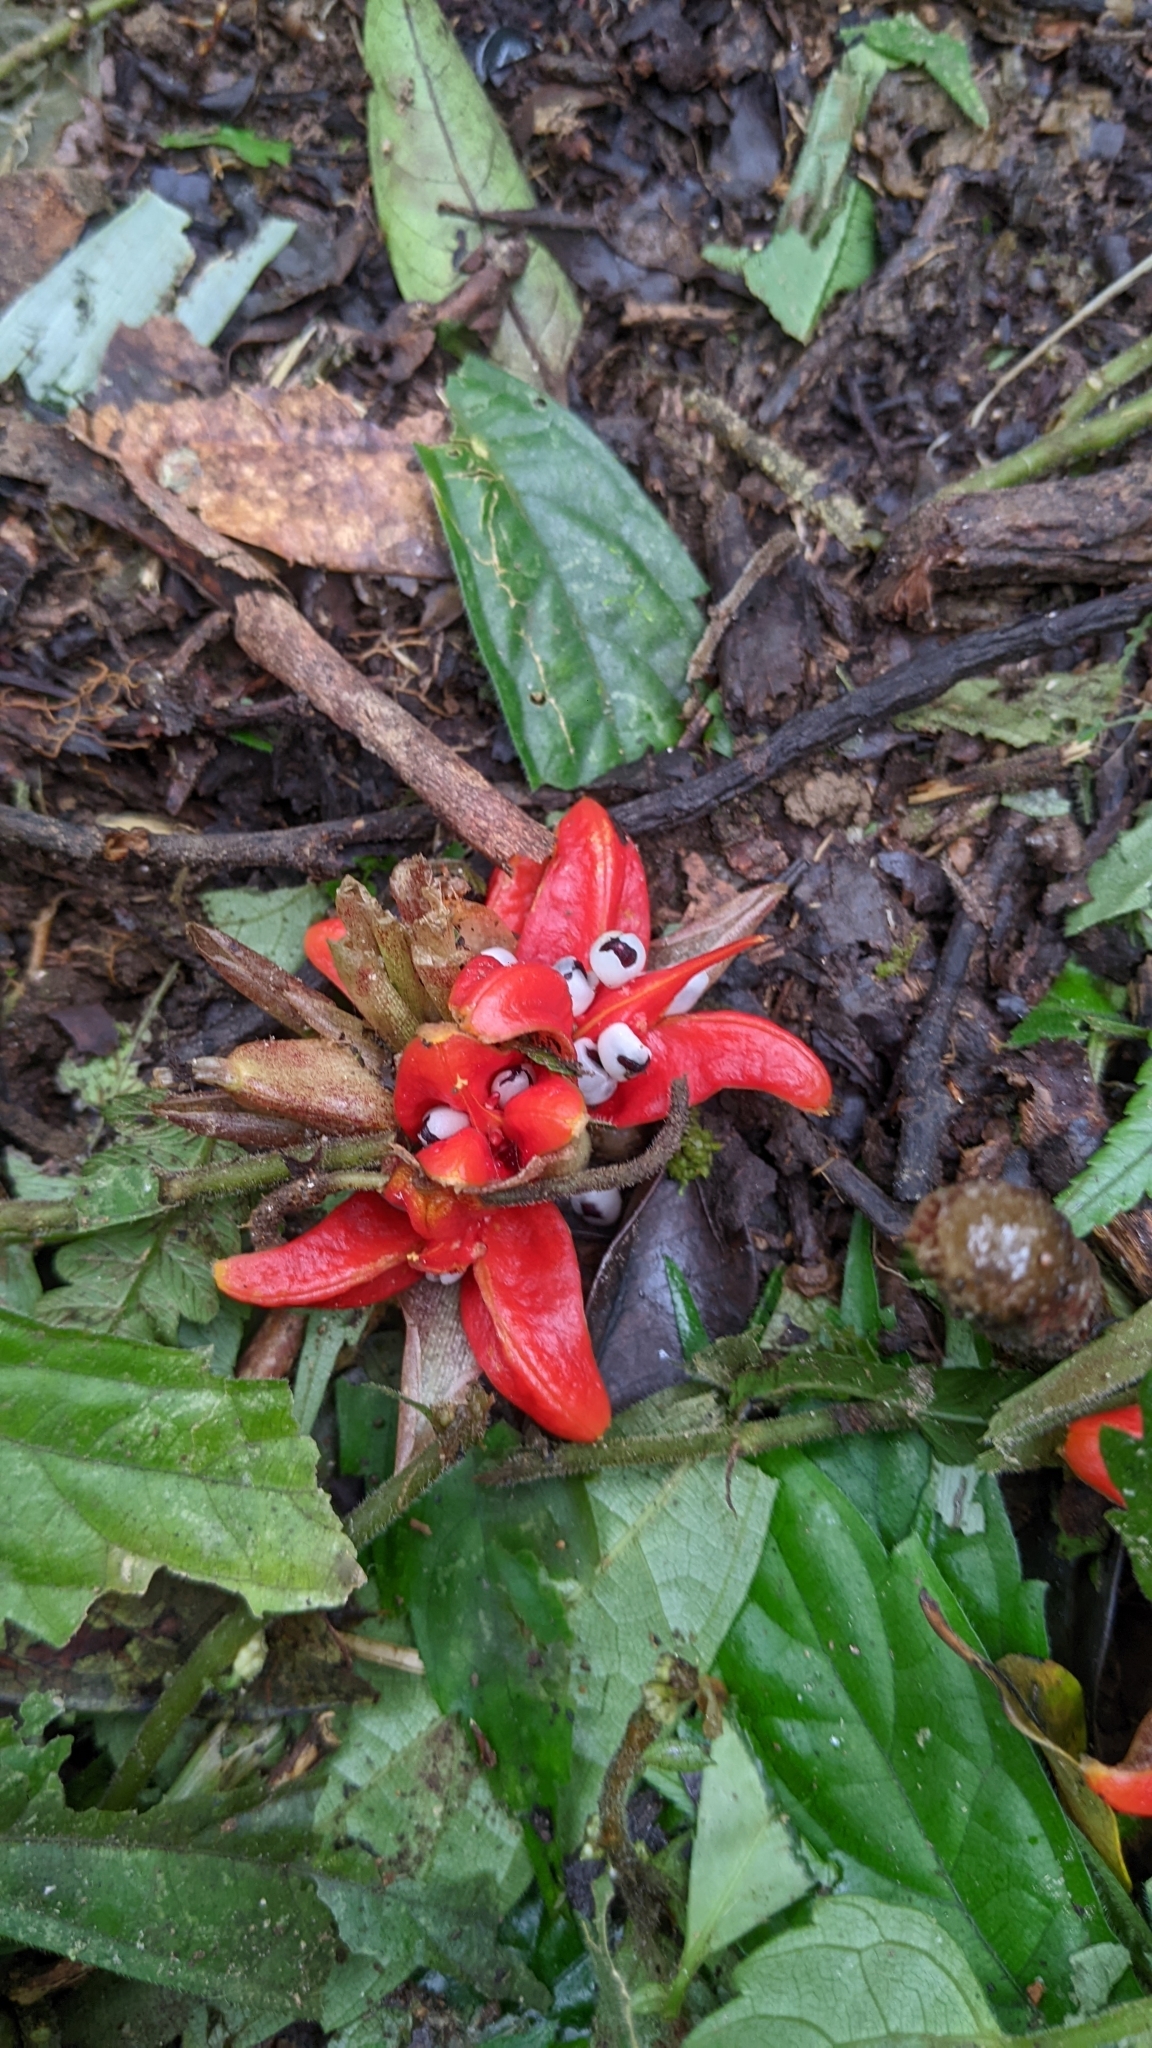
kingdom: Plantae
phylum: Tracheophyta
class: Liliopsida
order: Zingiberales
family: Zingiberaceae
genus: Zingiber
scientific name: Zingiber kawagoii
